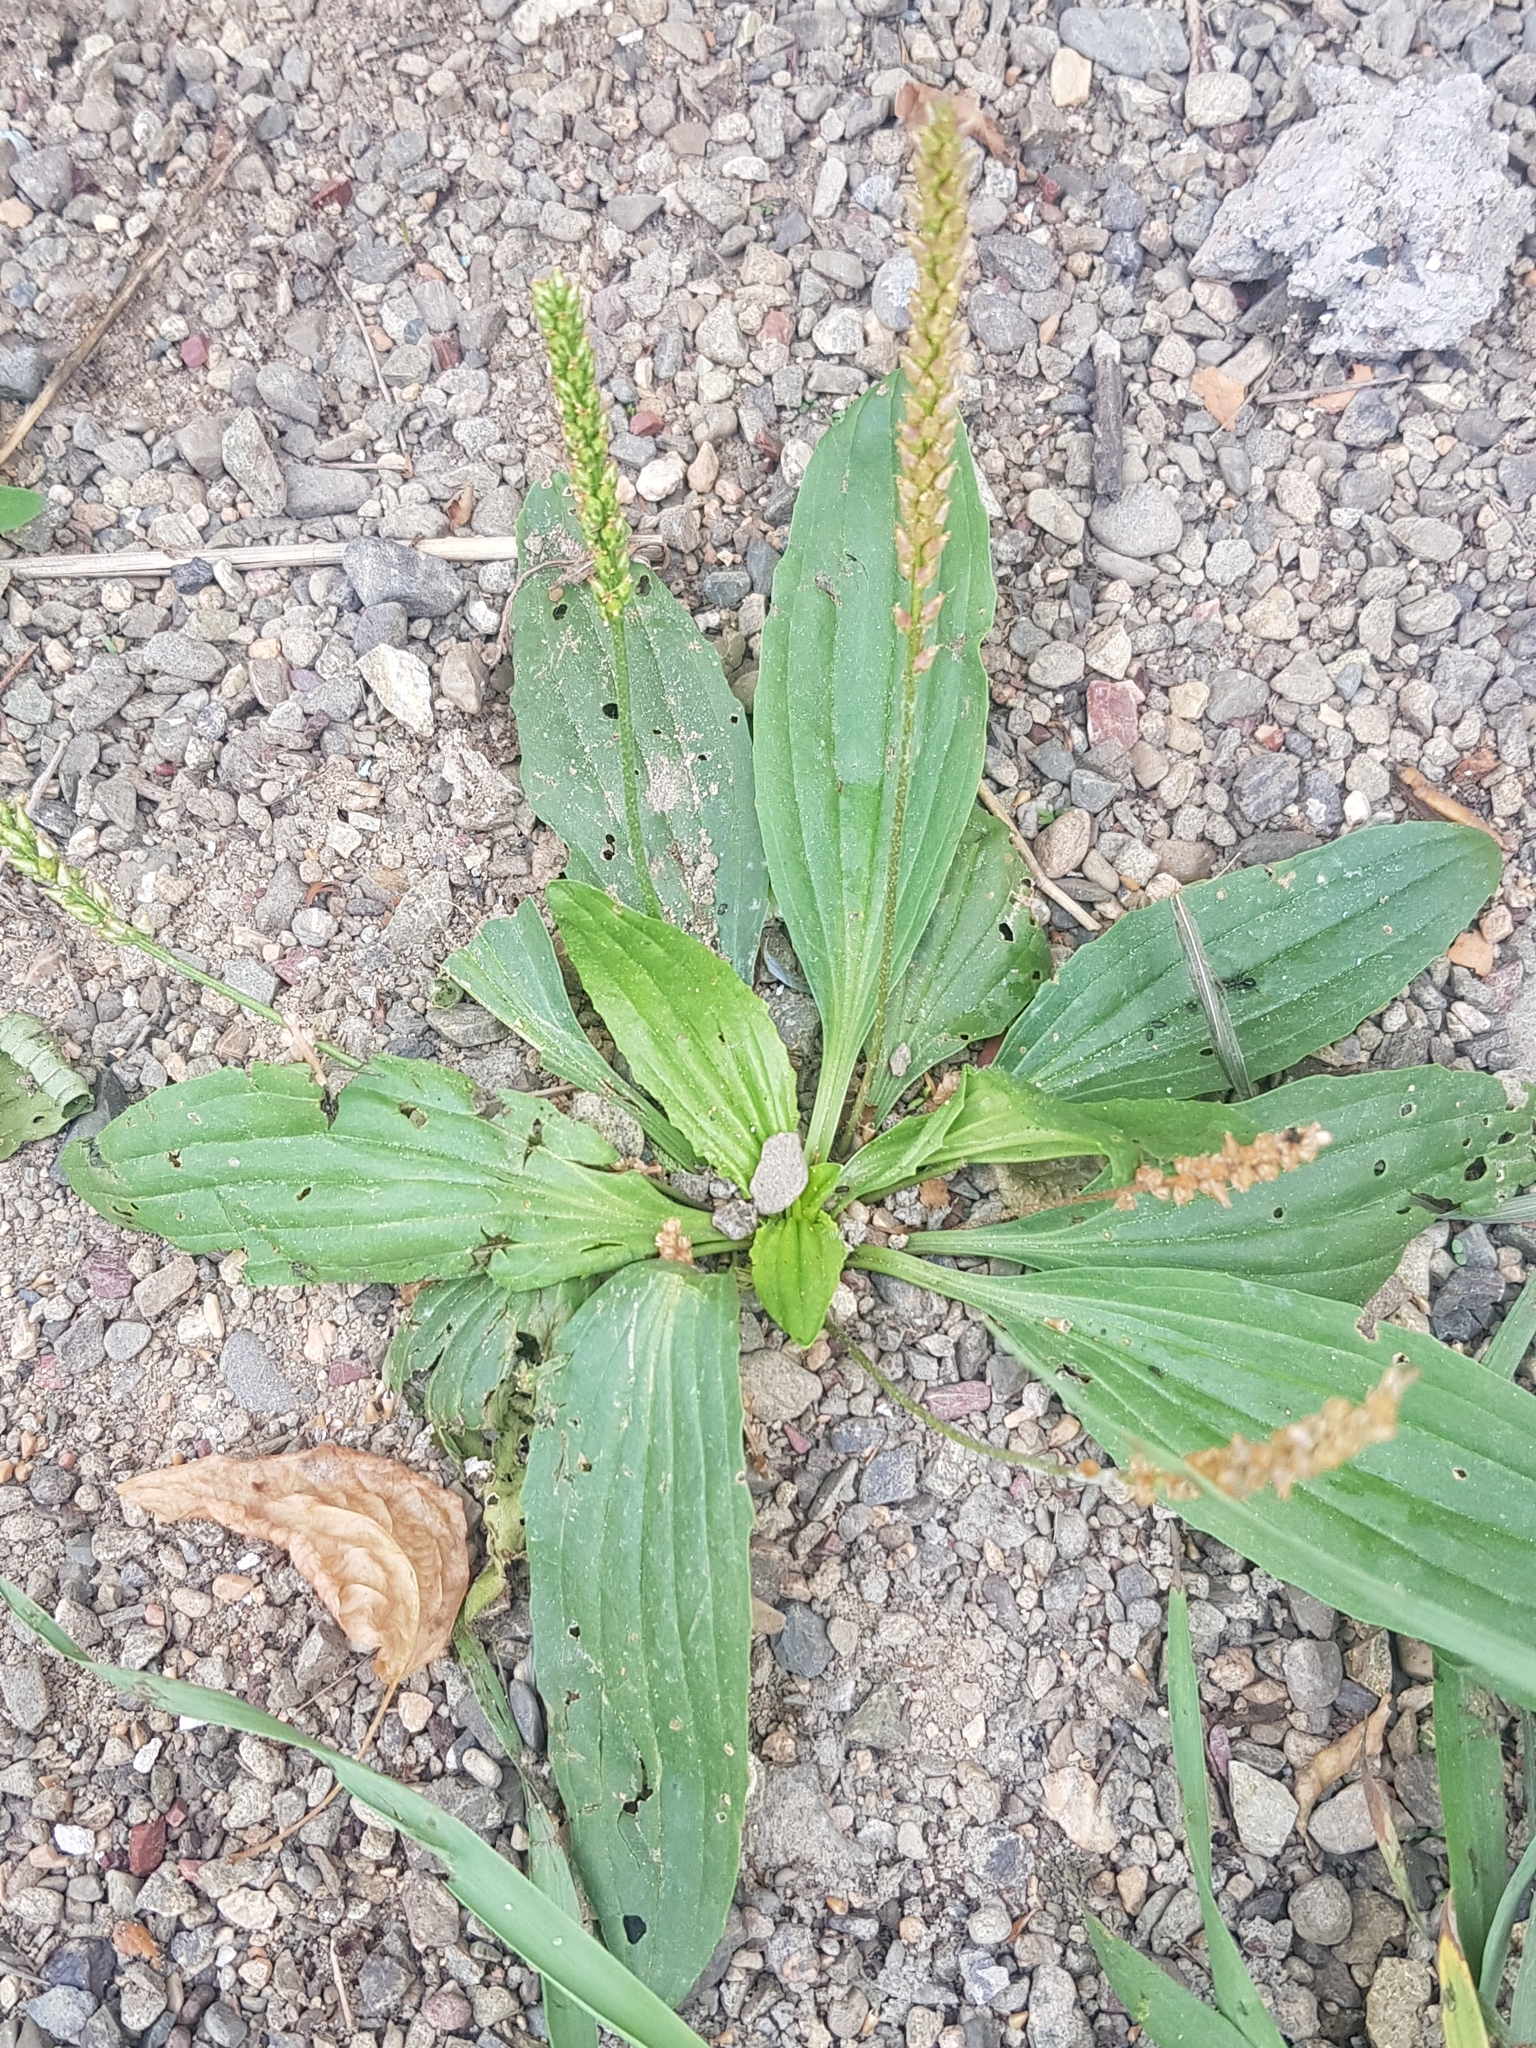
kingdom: Plantae
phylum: Tracheophyta
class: Magnoliopsida
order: Lamiales
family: Plantaginaceae
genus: Plantago
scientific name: Plantago depressa
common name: Depressed plantain
